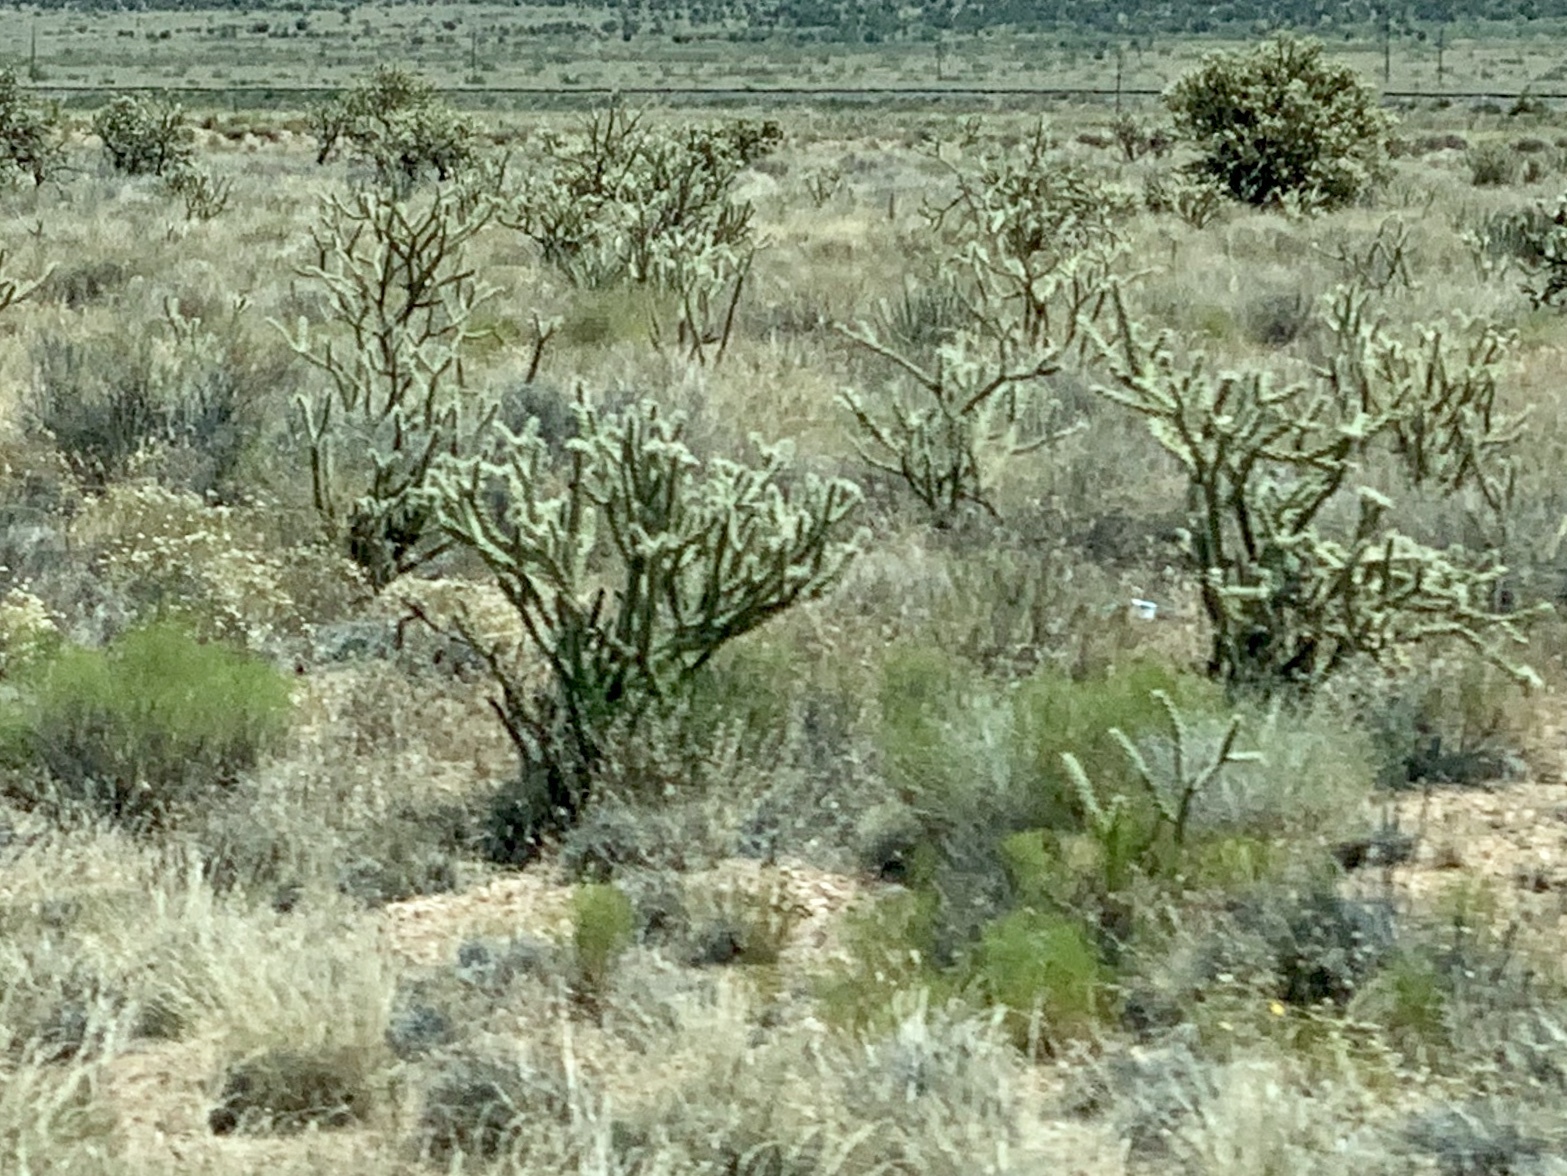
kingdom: Plantae
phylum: Tracheophyta
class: Magnoliopsida
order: Caryophyllales
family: Cactaceae
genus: Cylindropuntia
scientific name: Cylindropuntia acanthocarpa
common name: Buckhorn cholla
